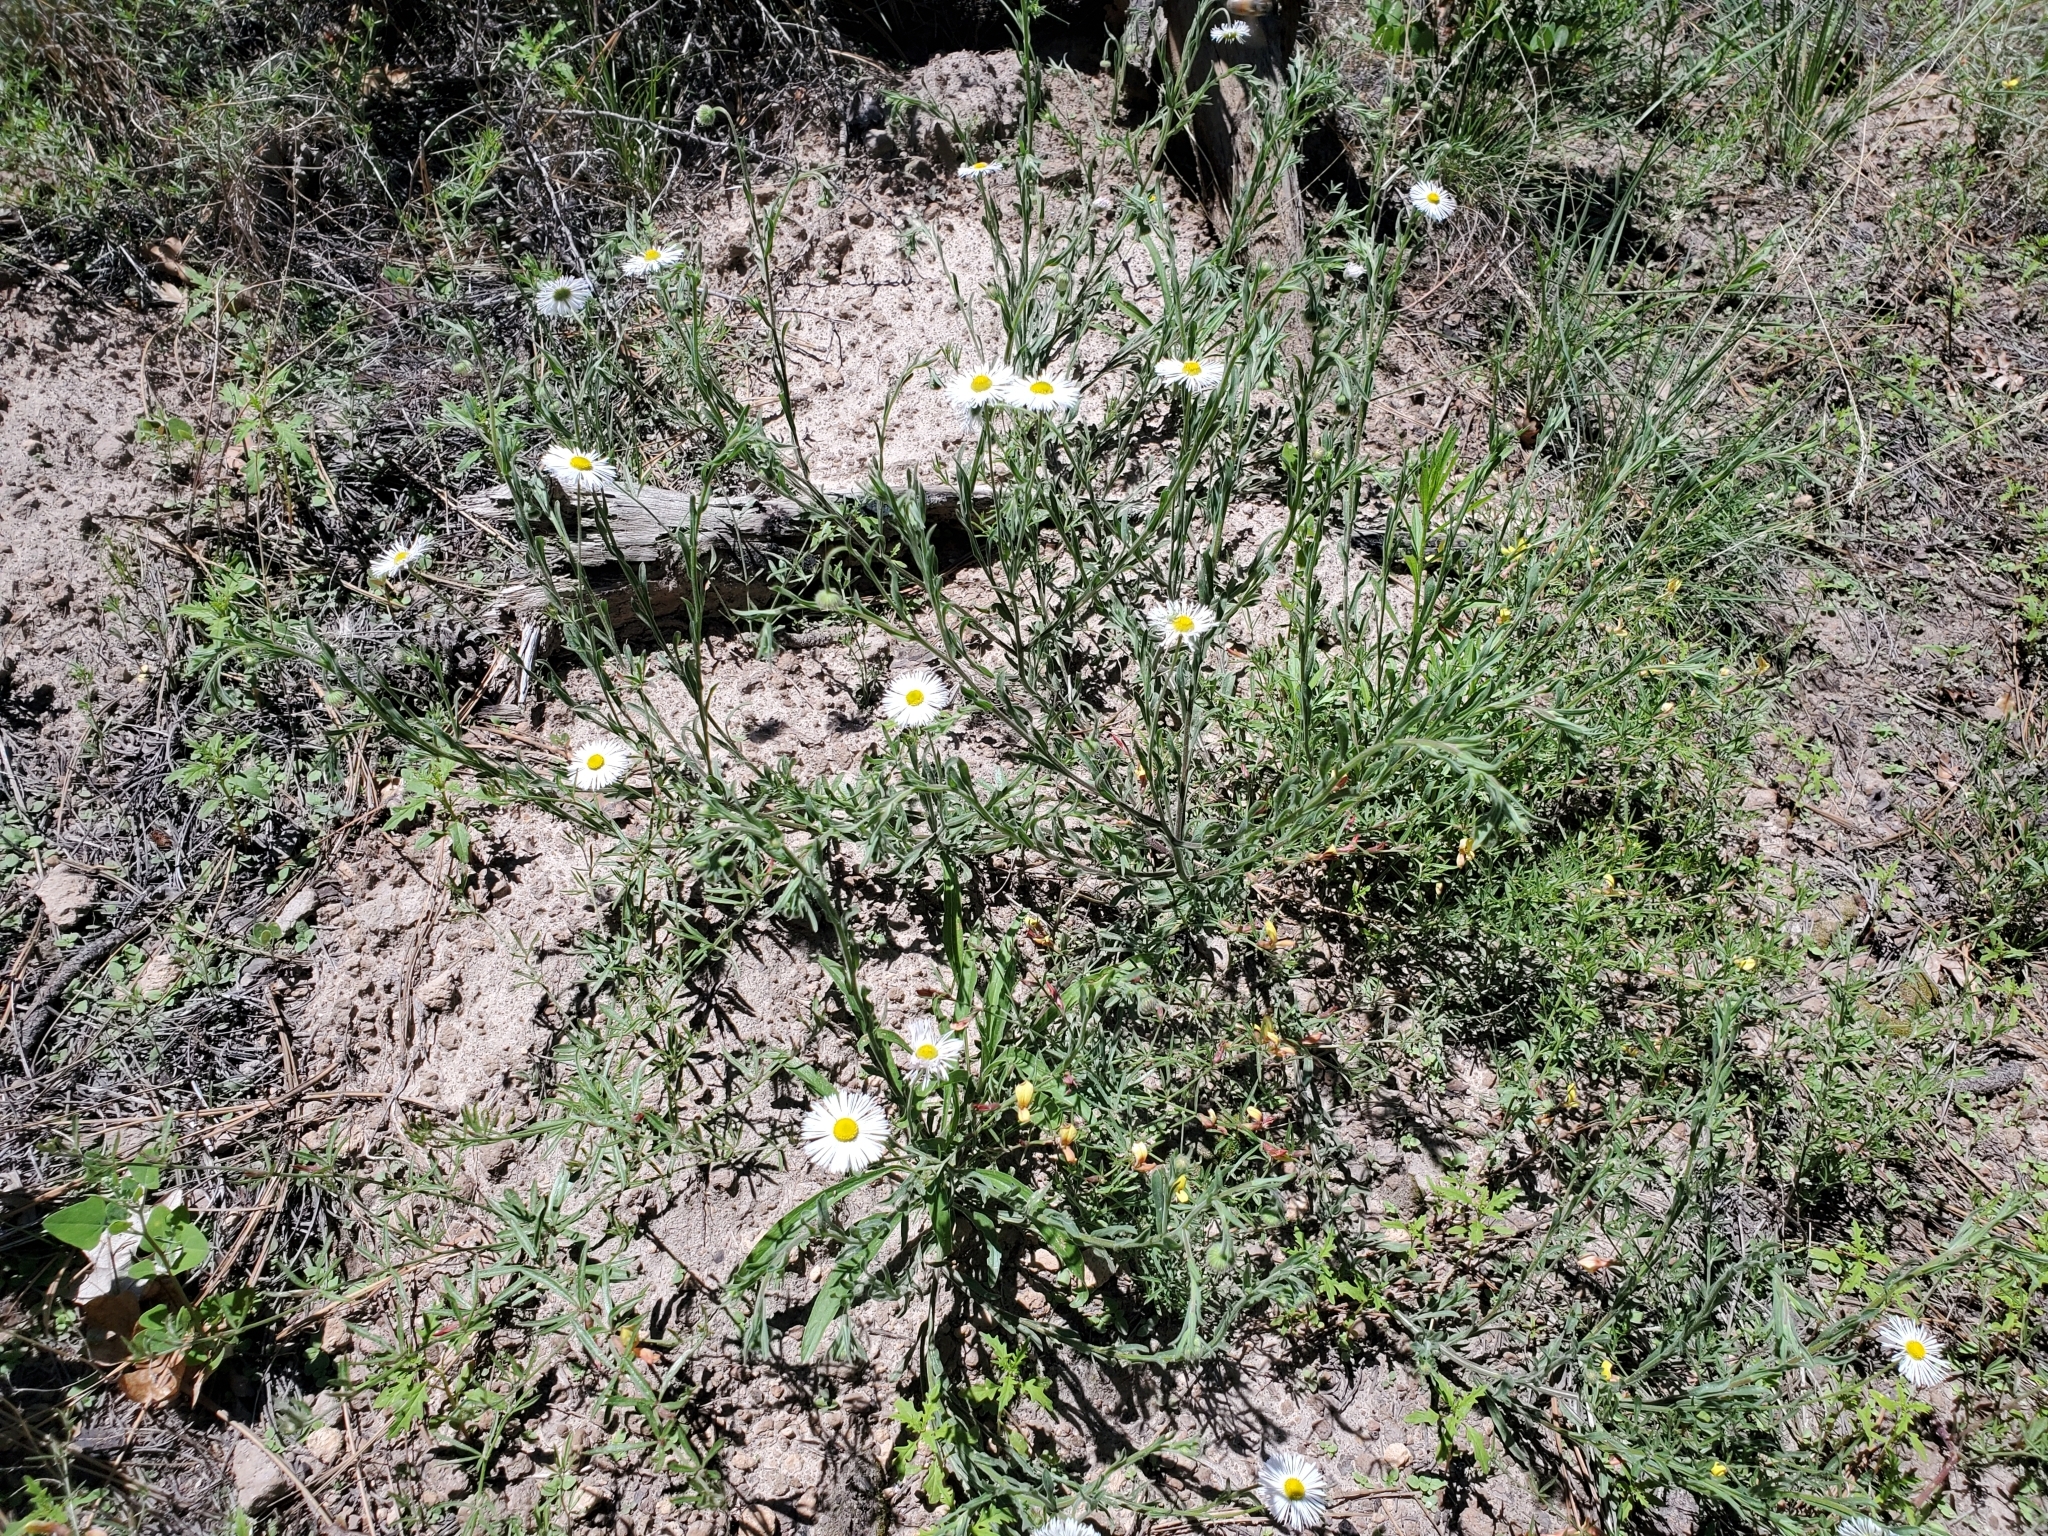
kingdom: Plantae
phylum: Tracheophyta
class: Magnoliopsida
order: Asterales
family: Asteraceae
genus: Erigeron
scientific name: Erigeron flagellaris
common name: Running fleabane
